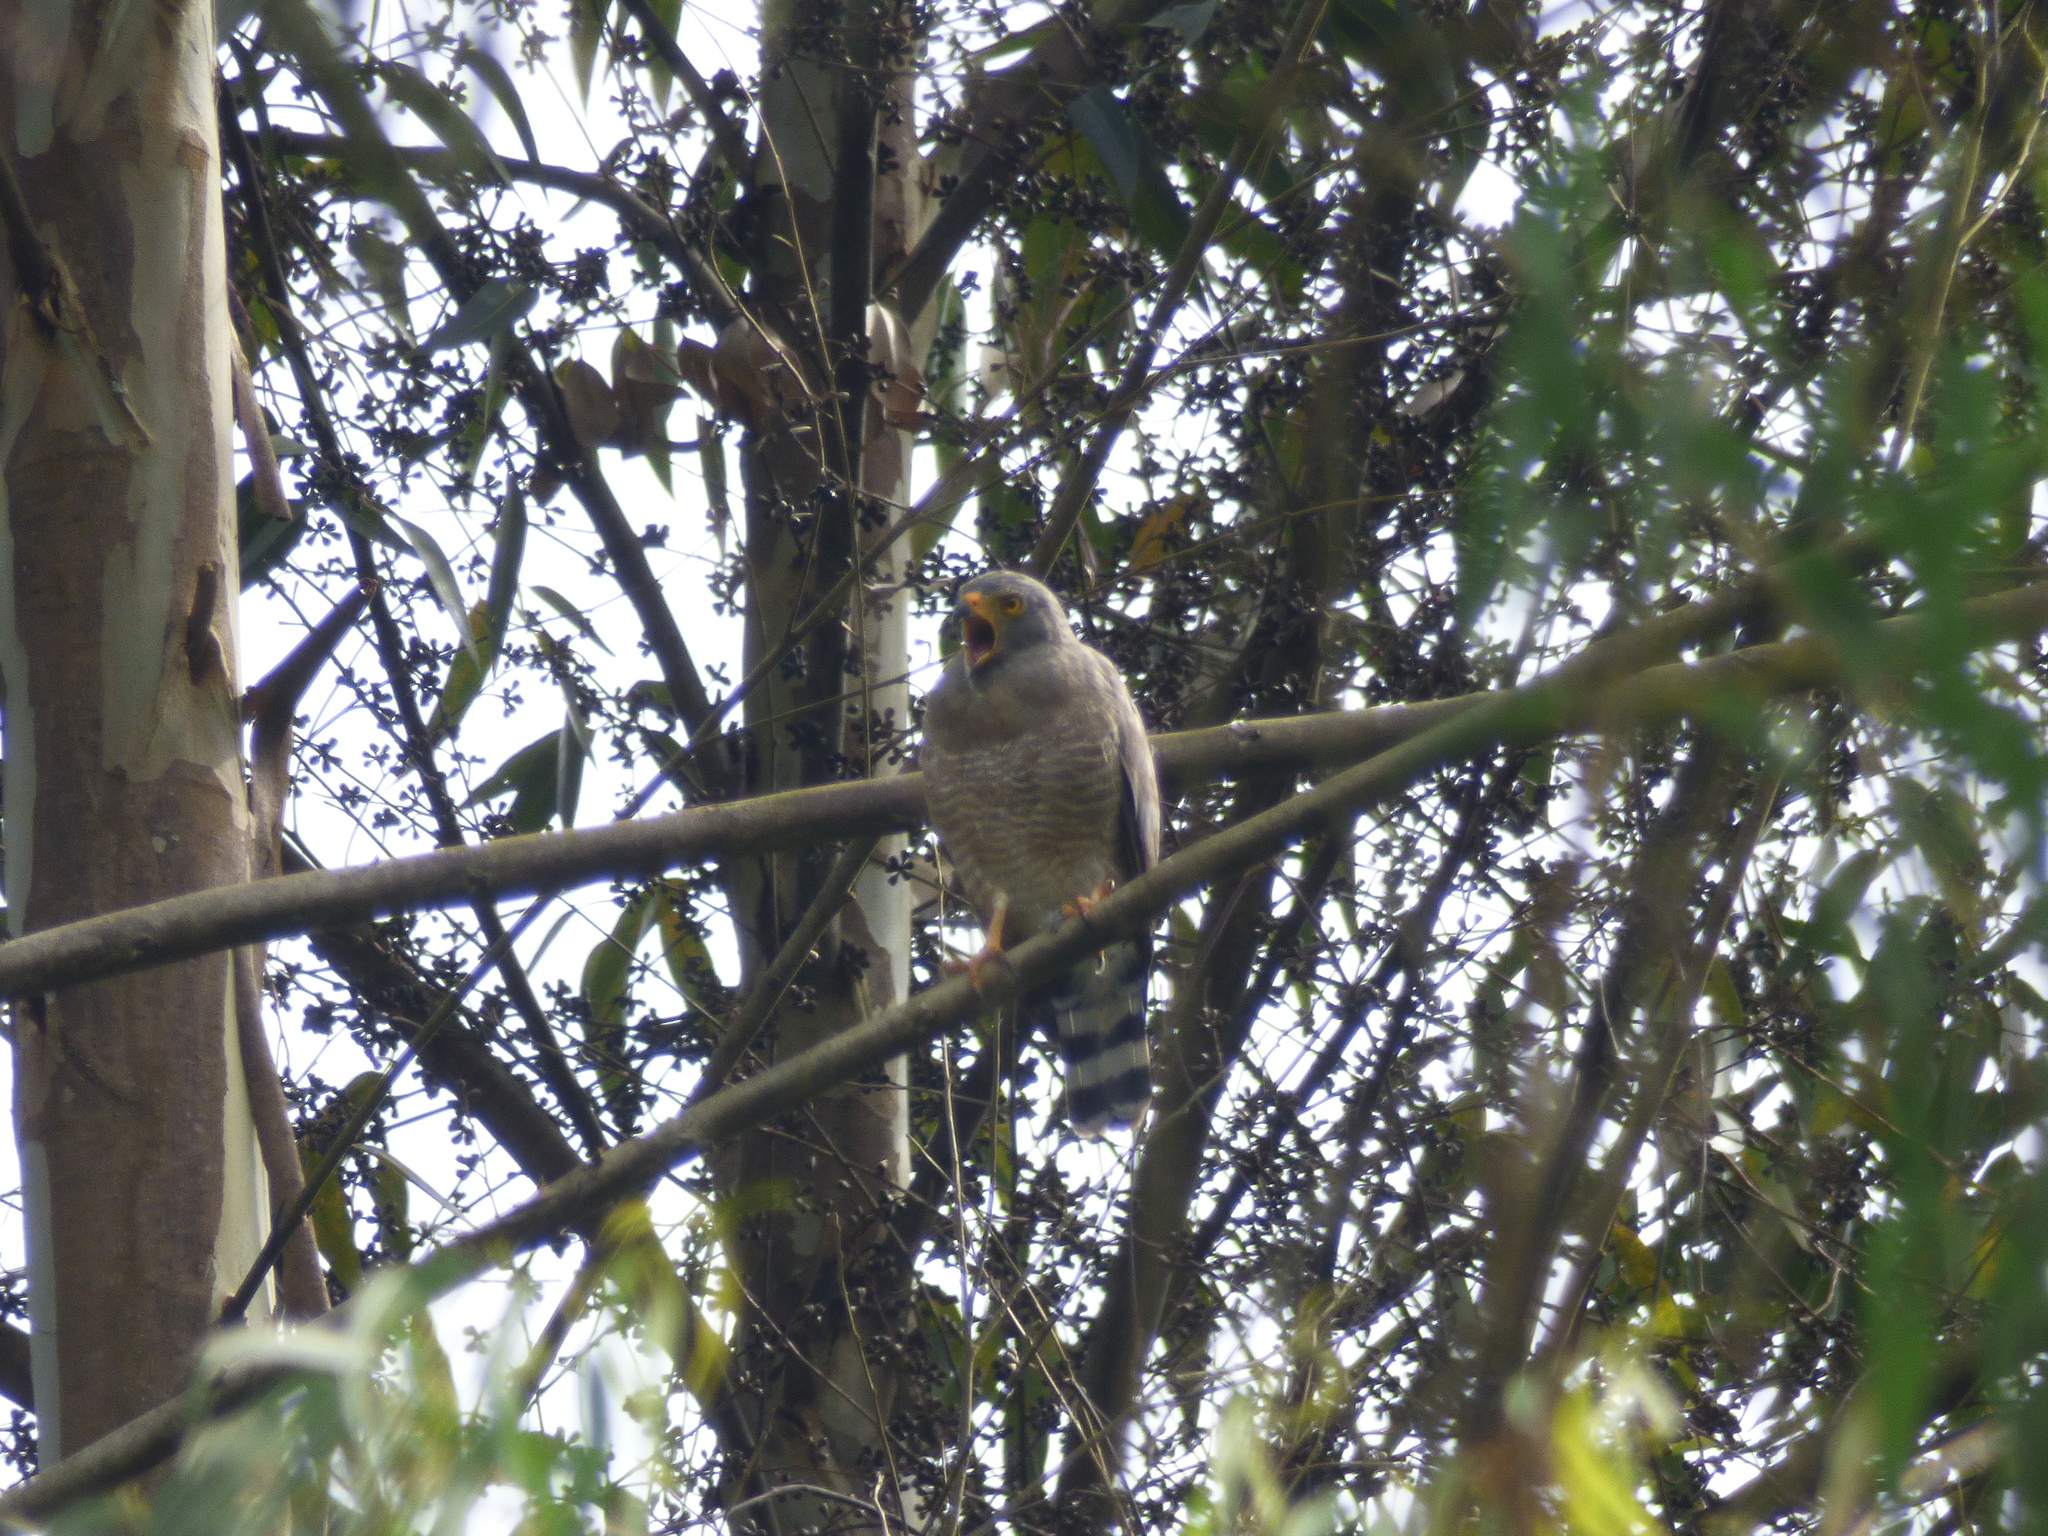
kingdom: Animalia
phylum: Chordata
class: Aves
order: Accipitriformes
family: Accipitridae
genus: Rupornis
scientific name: Rupornis magnirostris
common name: Roadside hawk
